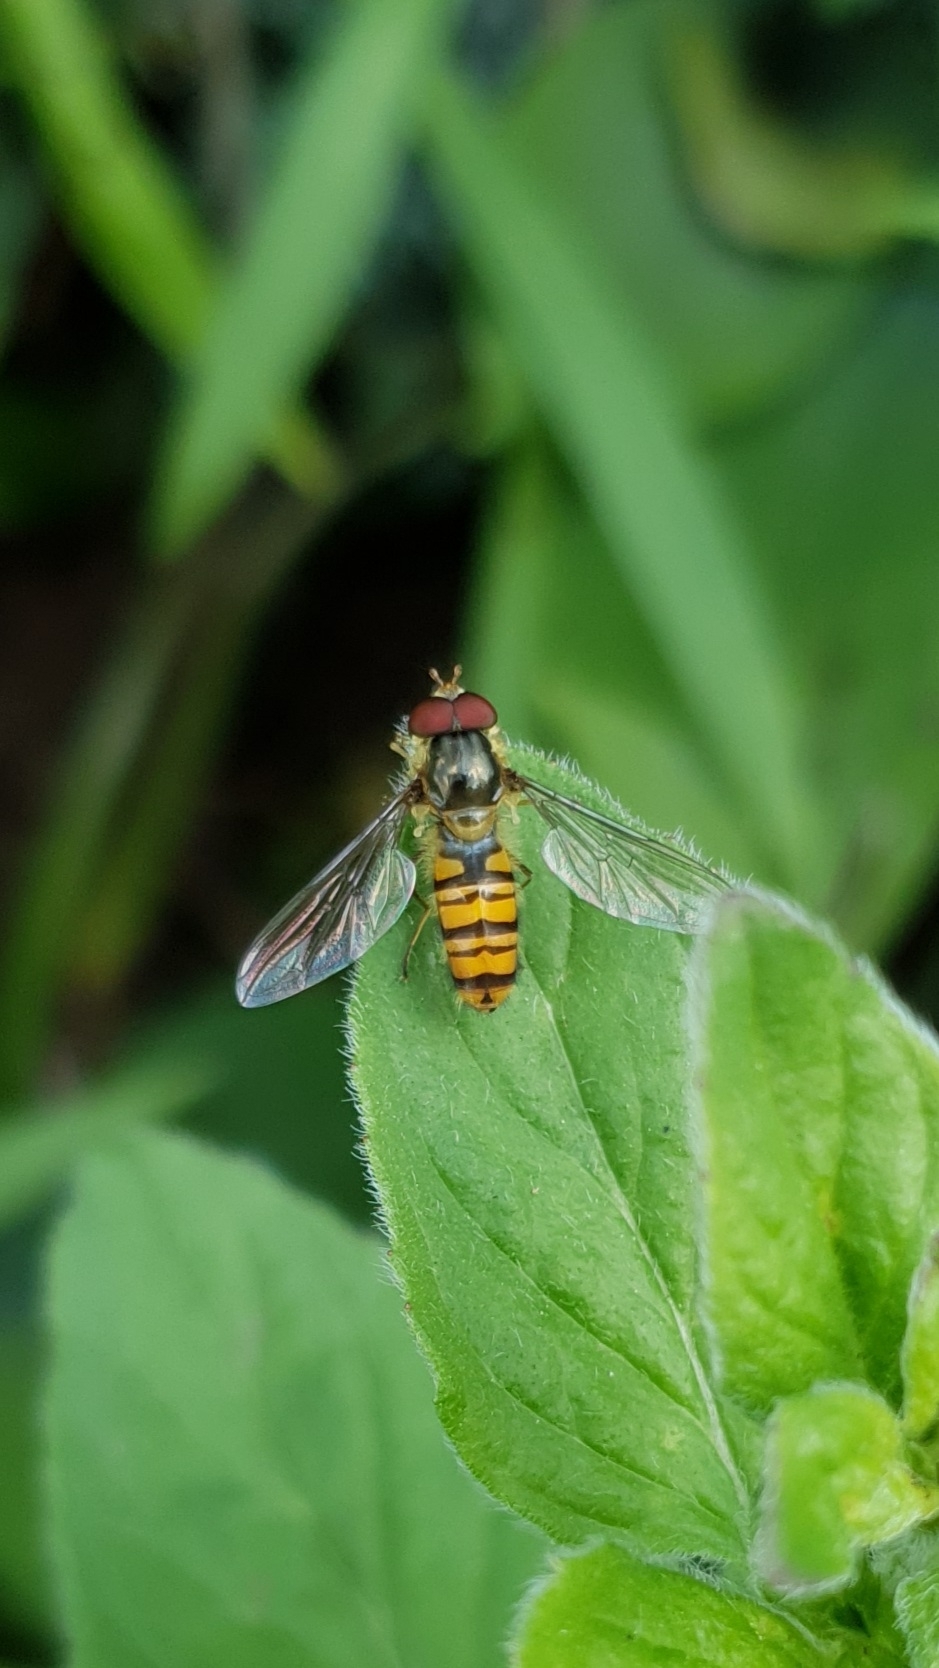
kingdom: Animalia
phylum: Arthropoda
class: Insecta
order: Diptera
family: Syrphidae
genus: Episyrphus
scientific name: Episyrphus balteatus
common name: Marmalade hoverfly
